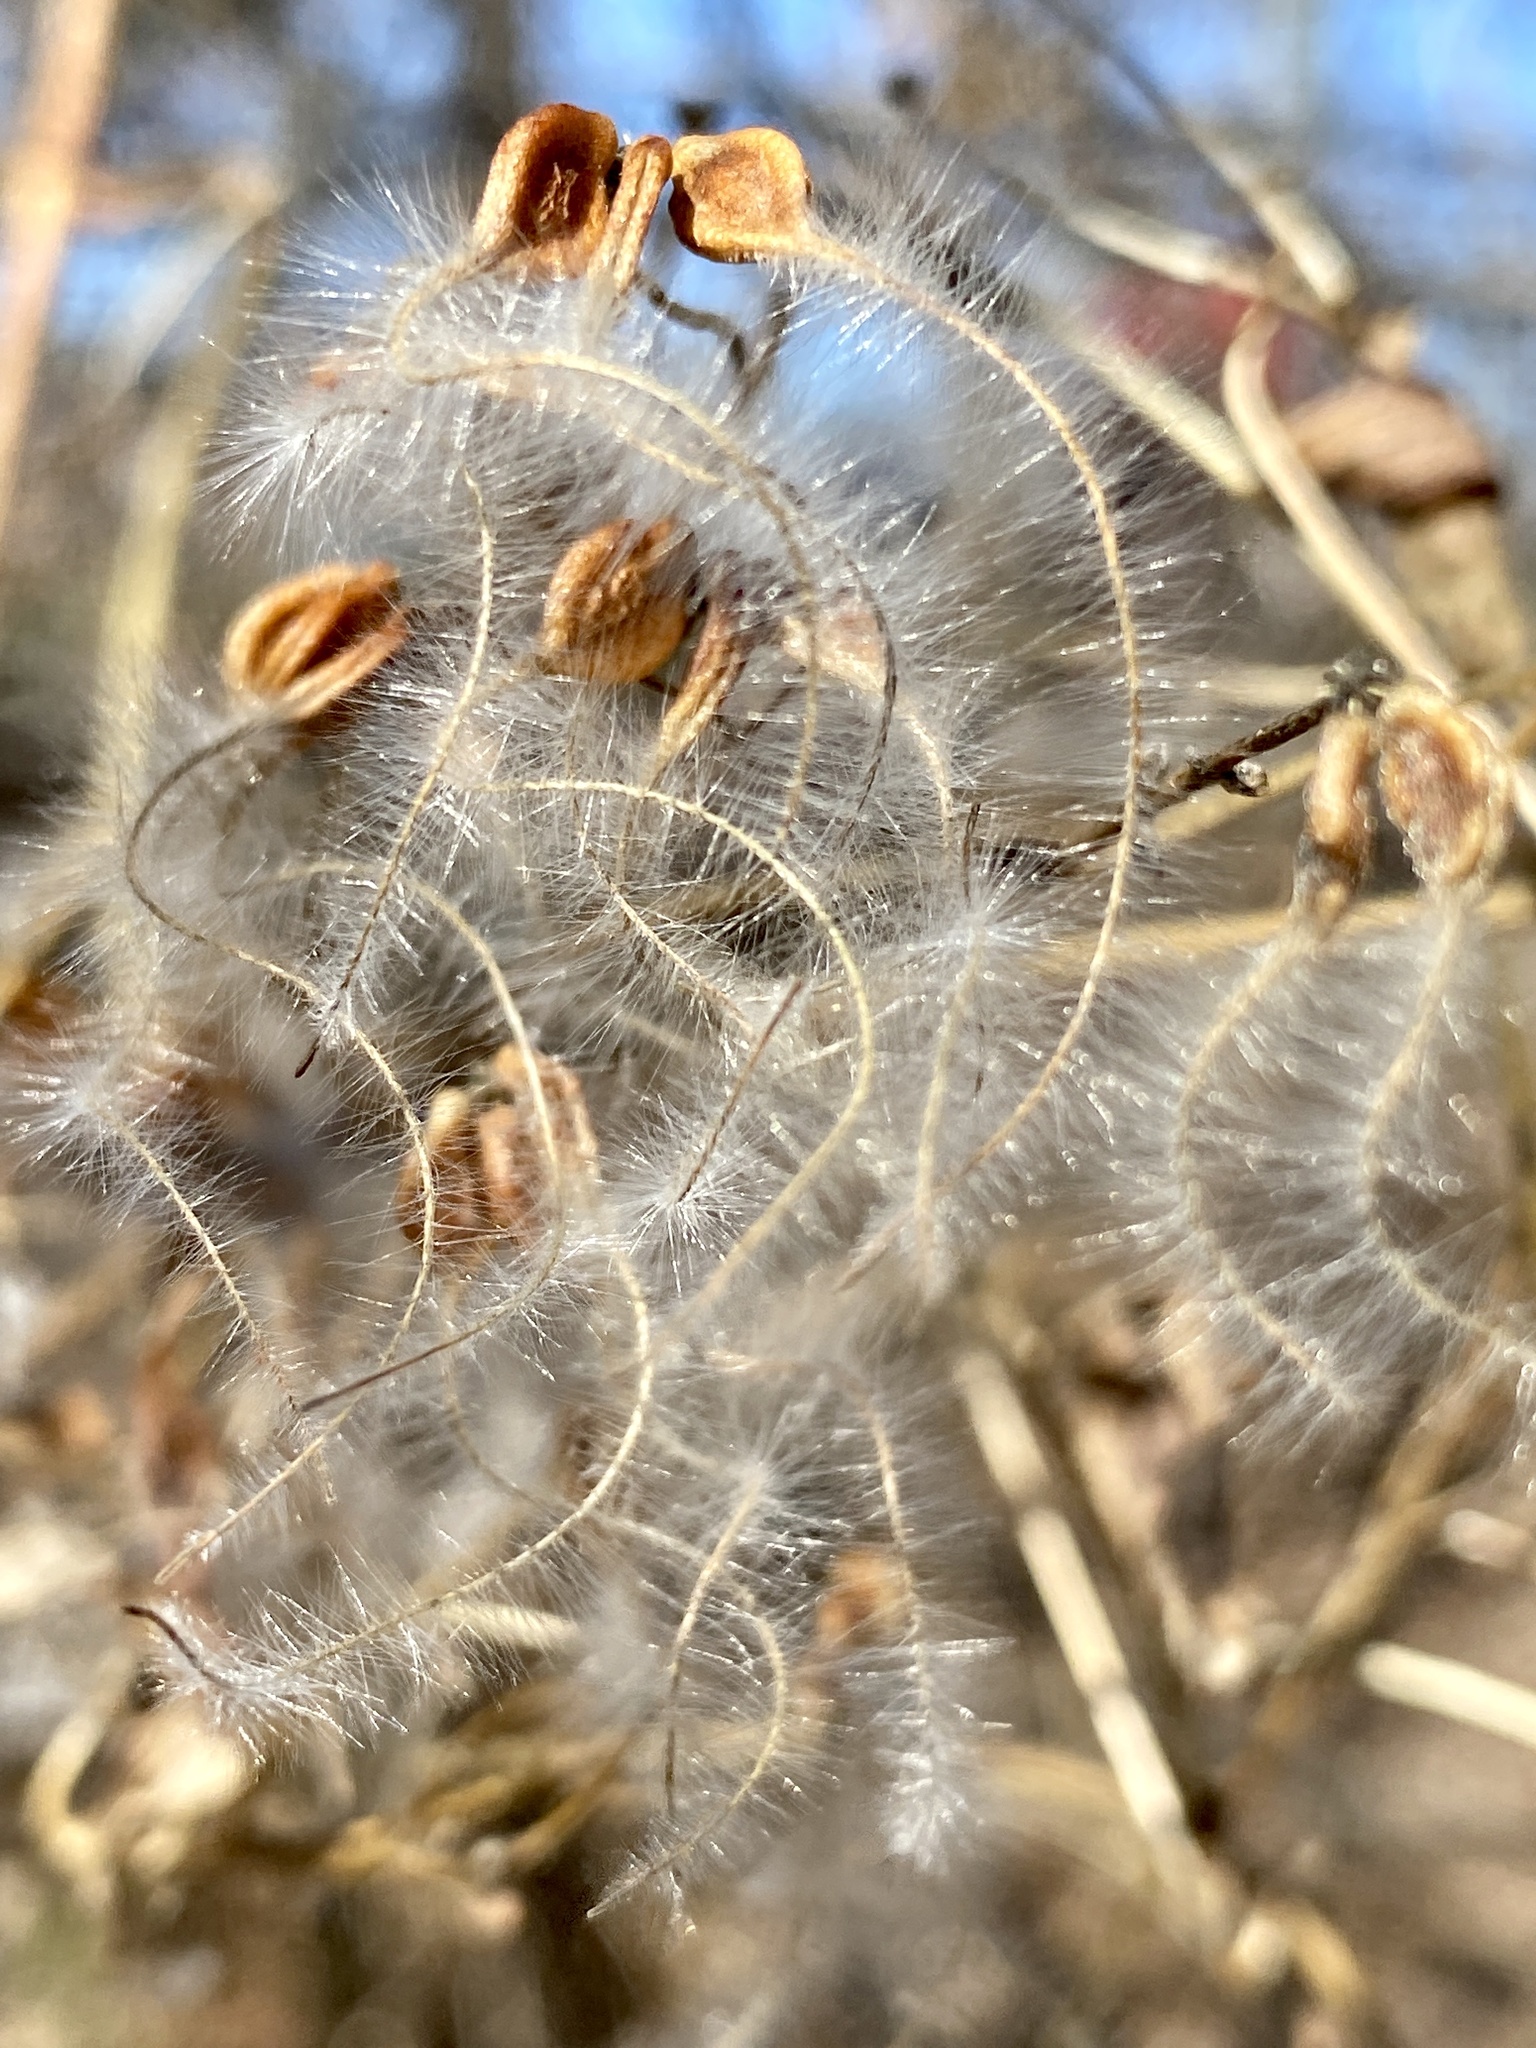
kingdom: Plantae
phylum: Tracheophyta
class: Magnoliopsida
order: Ranunculales
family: Ranunculaceae
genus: Clematis
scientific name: Clematis terniflora
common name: Sweet autumn clematis
